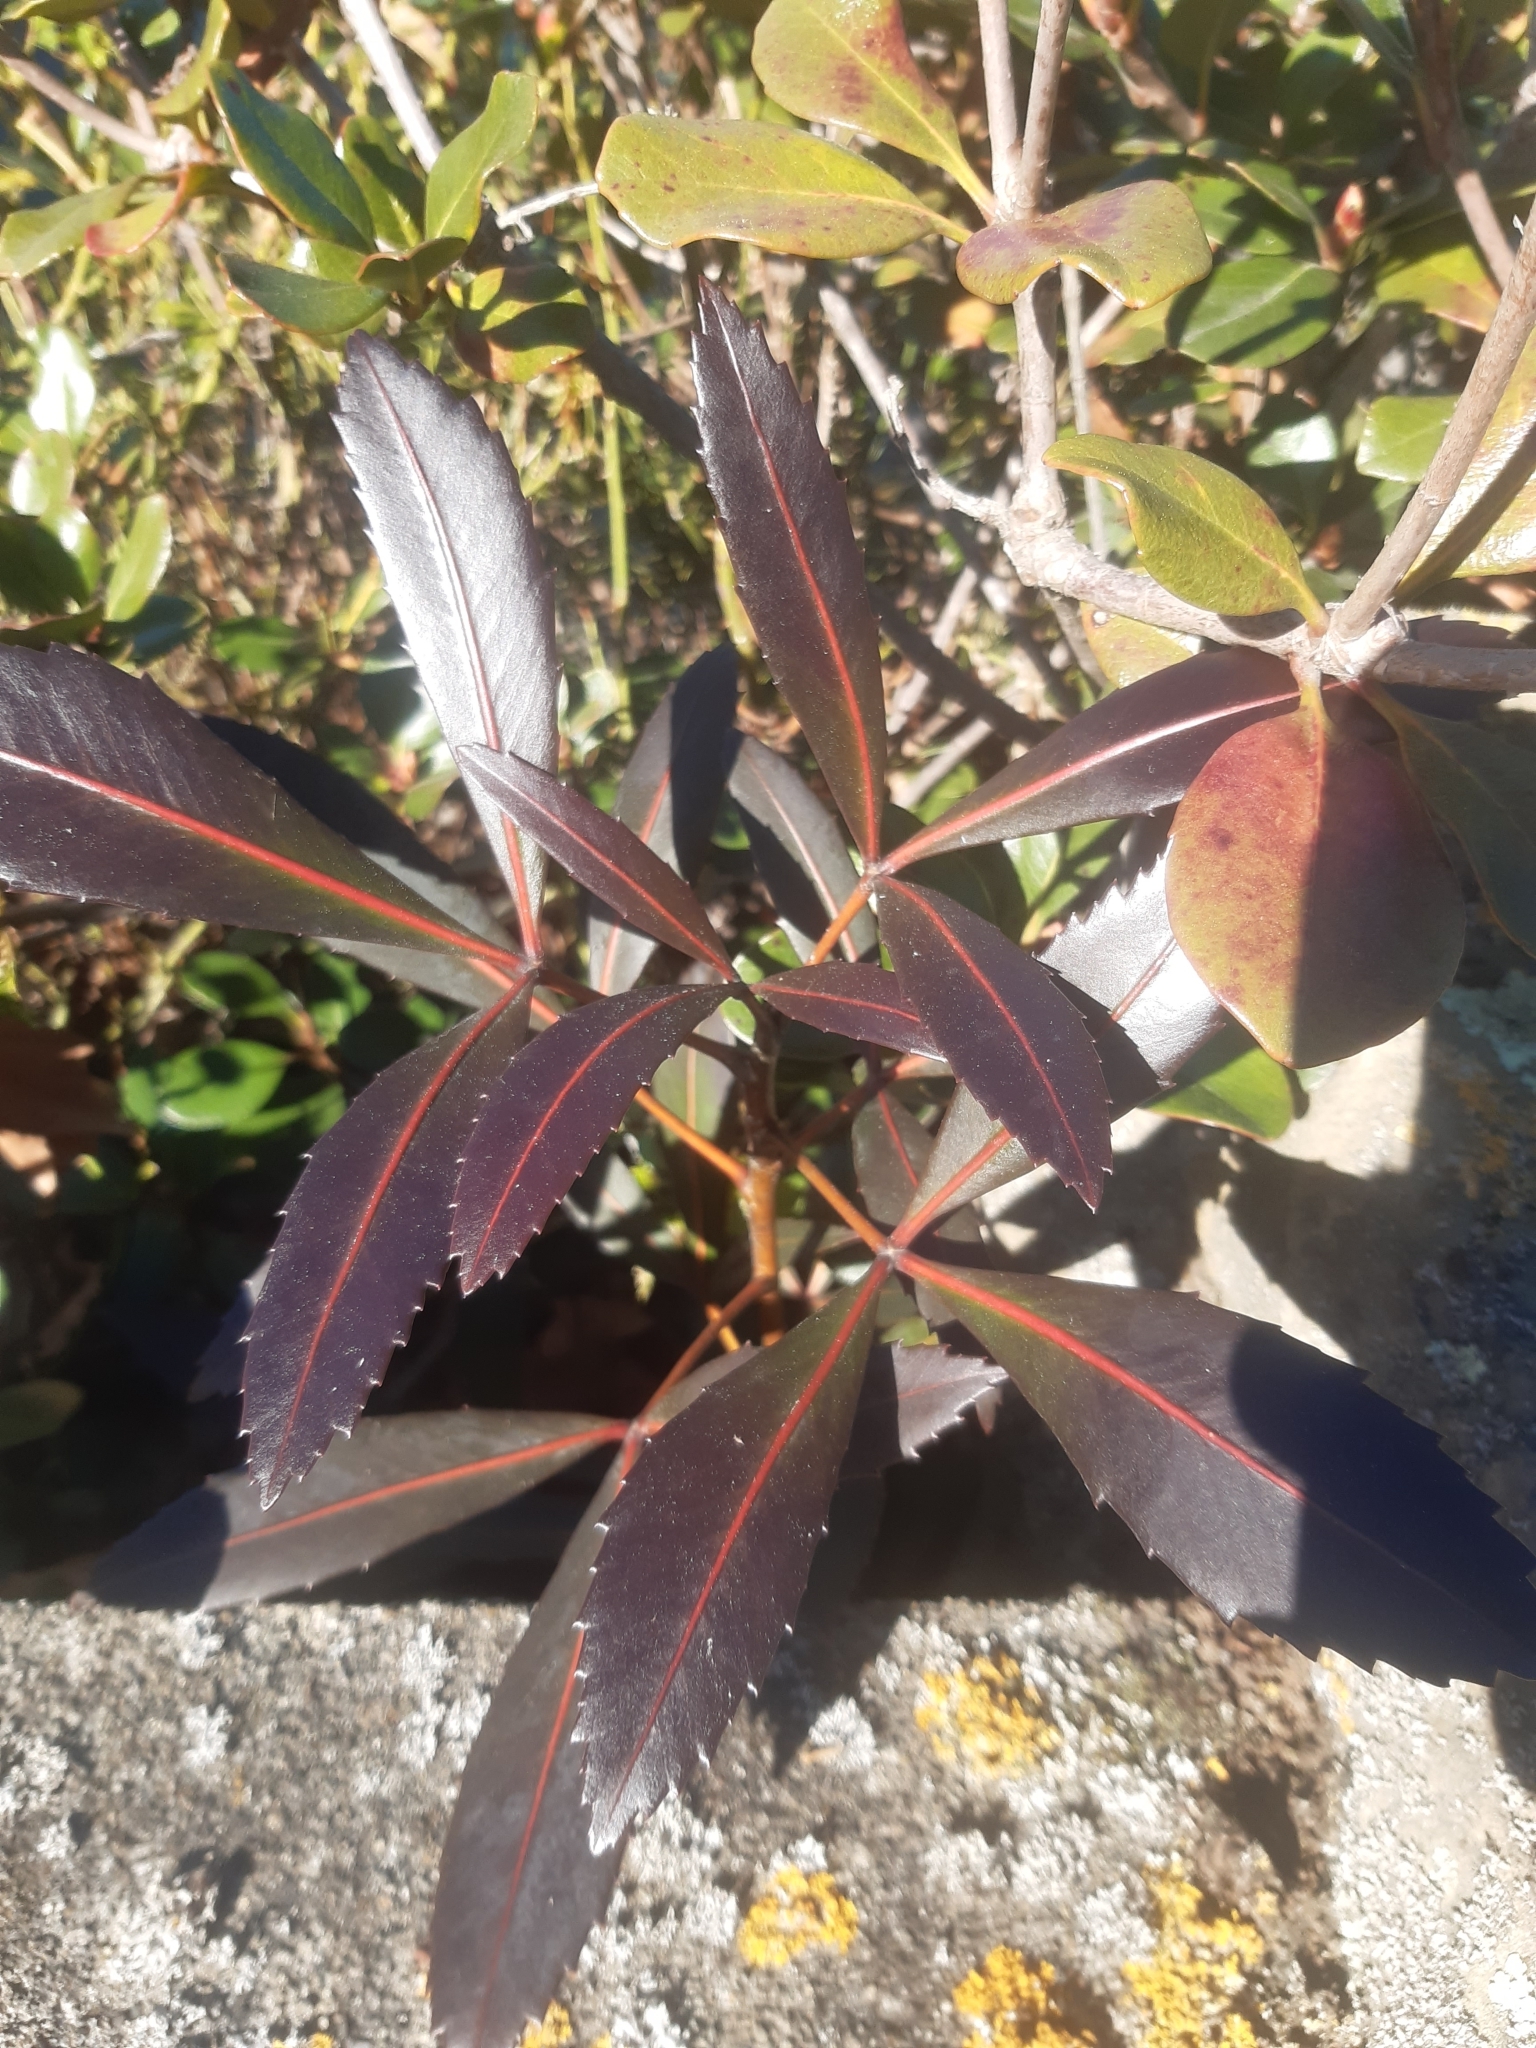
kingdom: Plantae
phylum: Tracheophyta
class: Magnoliopsida
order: Apiales
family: Araliaceae
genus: Pseudopanax
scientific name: Pseudopanax
